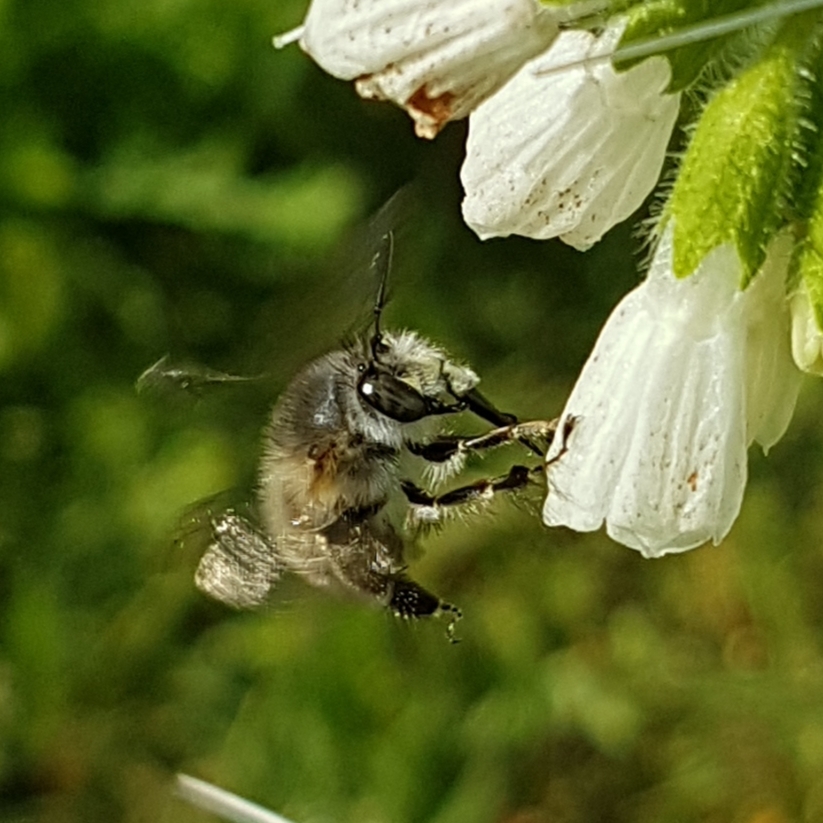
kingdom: Animalia
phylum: Arthropoda
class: Insecta
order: Hymenoptera
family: Apidae
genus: Anthophora
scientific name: Anthophora plumipes
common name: Hairy-footed flower bee
